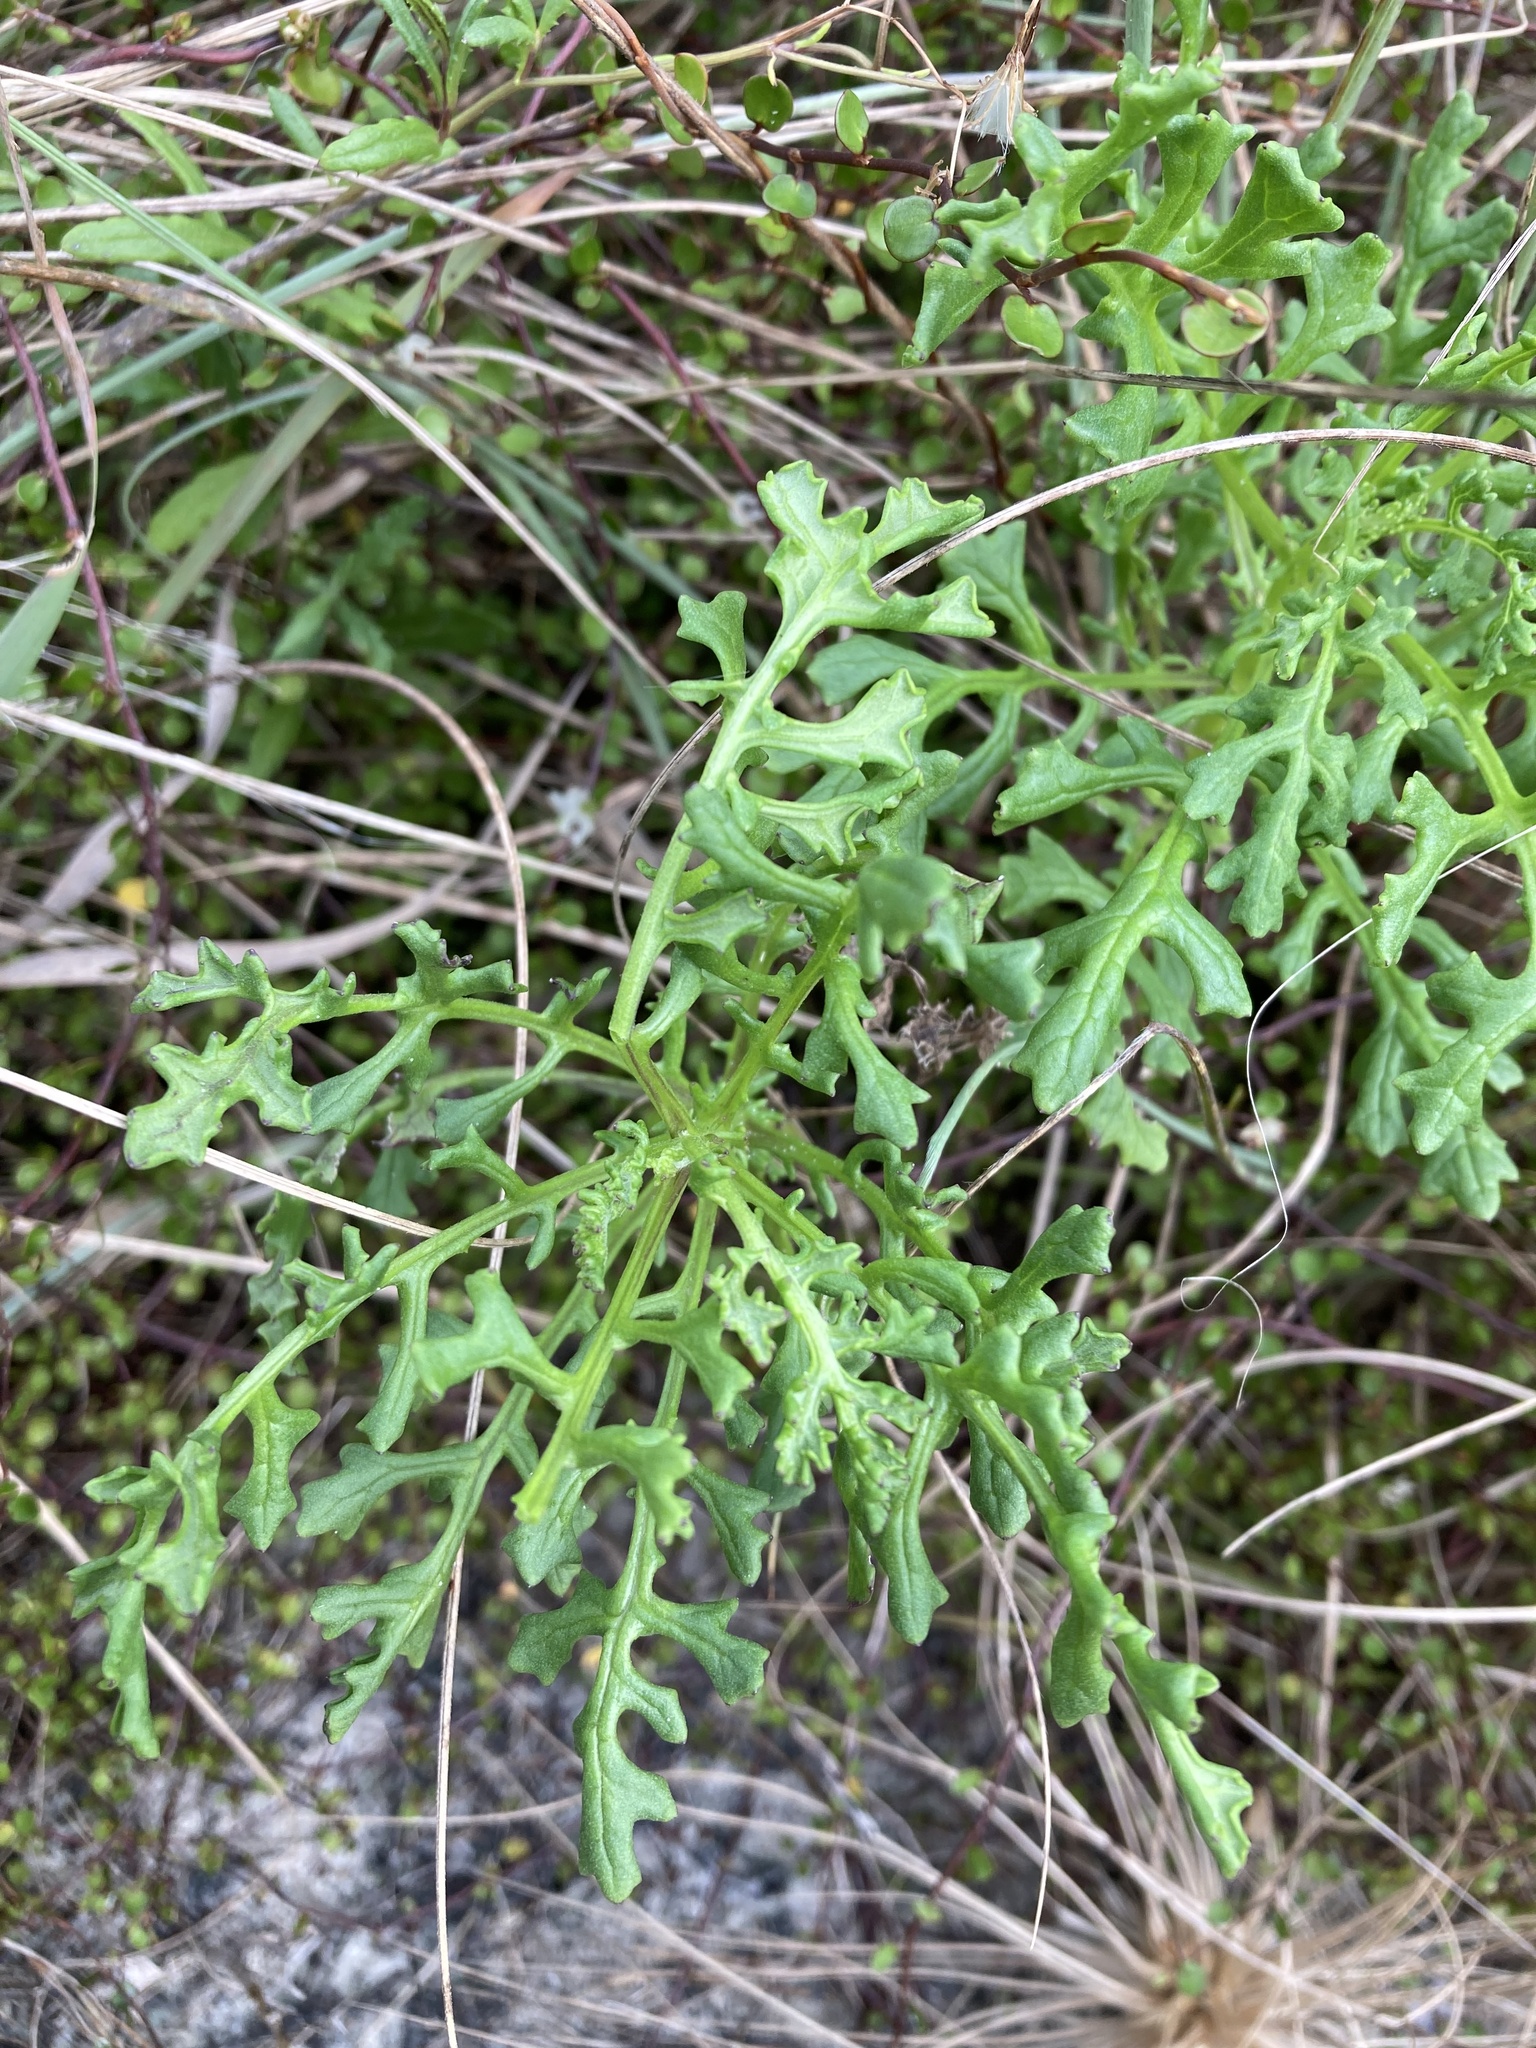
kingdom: Plantae
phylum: Tracheophyta
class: Magnoliopsida
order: Asterales
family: Asteraceae
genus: Senecio
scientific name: Senecio elegans
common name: Purple groundsel
